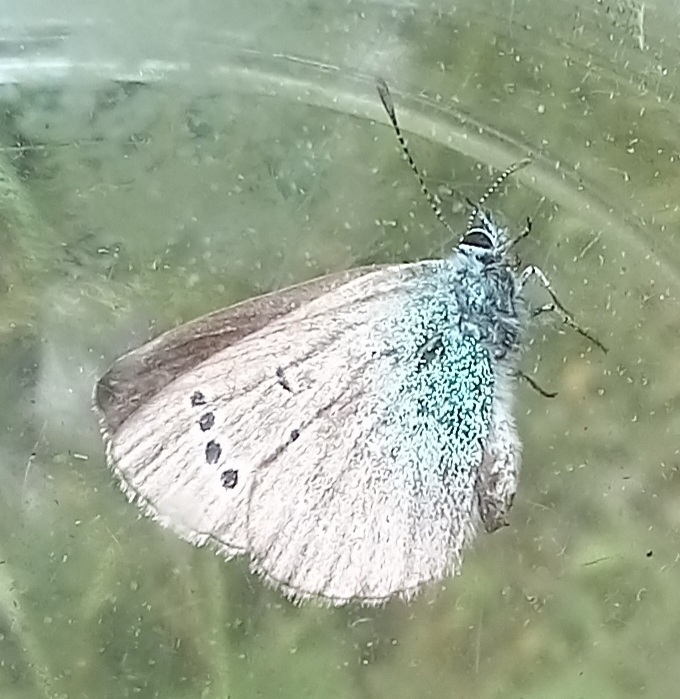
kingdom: Animalia
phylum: Arthropoda
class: Insecta
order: Lepidoptera
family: Lycaenidae
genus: Glaucopsyche
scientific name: Glaucopsyche alexis
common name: Green-underside blue
